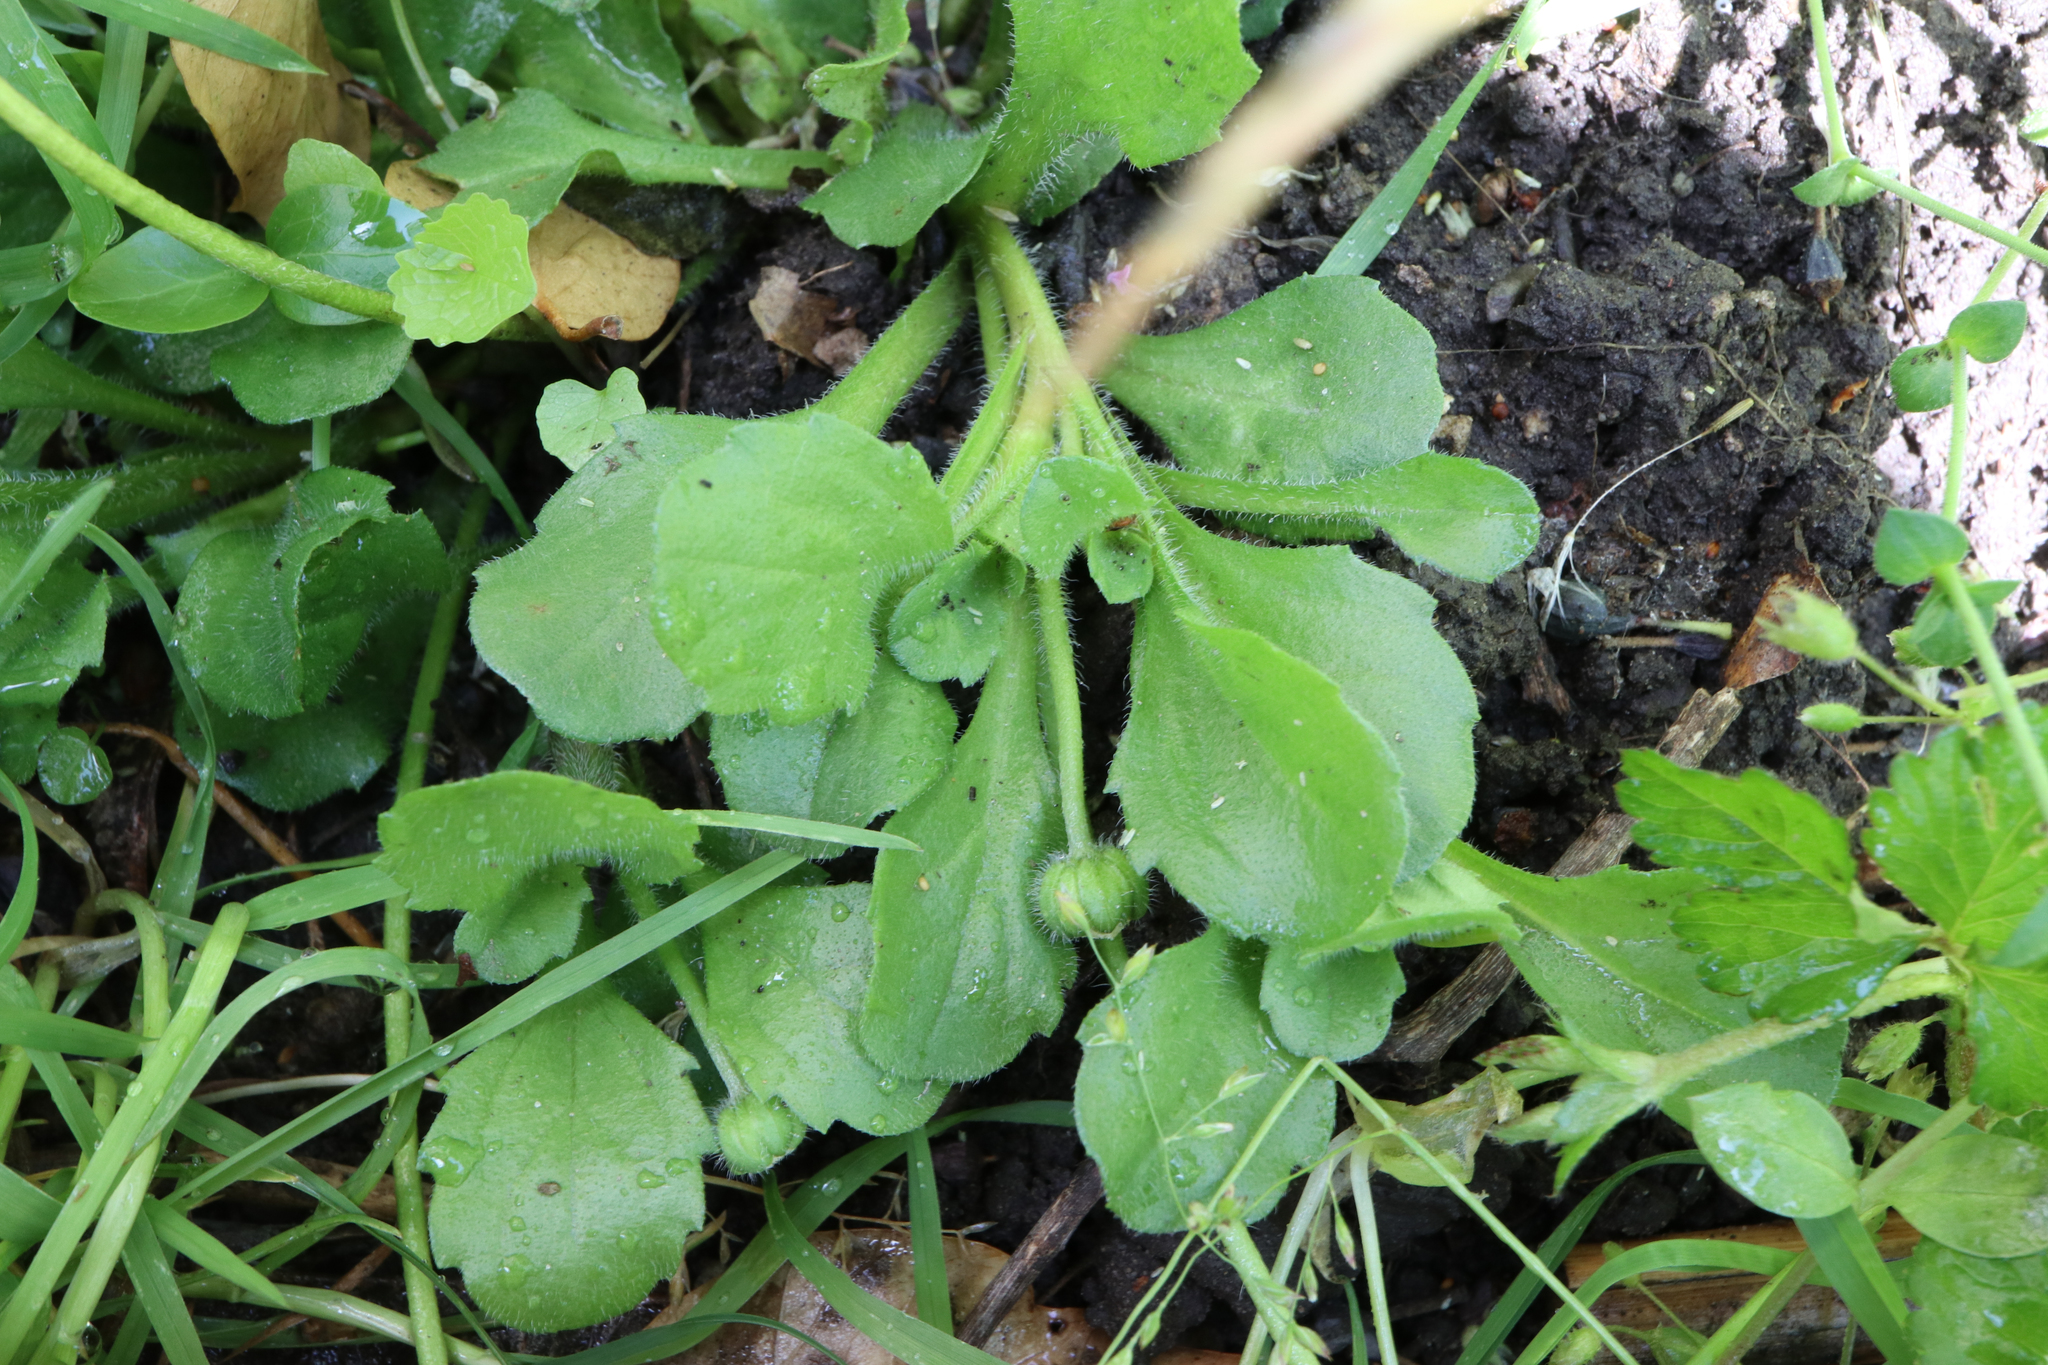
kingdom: Plantae
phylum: Tracheophyta
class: Magnoliopsida
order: Asterales
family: Asteraceae
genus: Bellis
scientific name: Bellis perennis
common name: Lawndaisy
